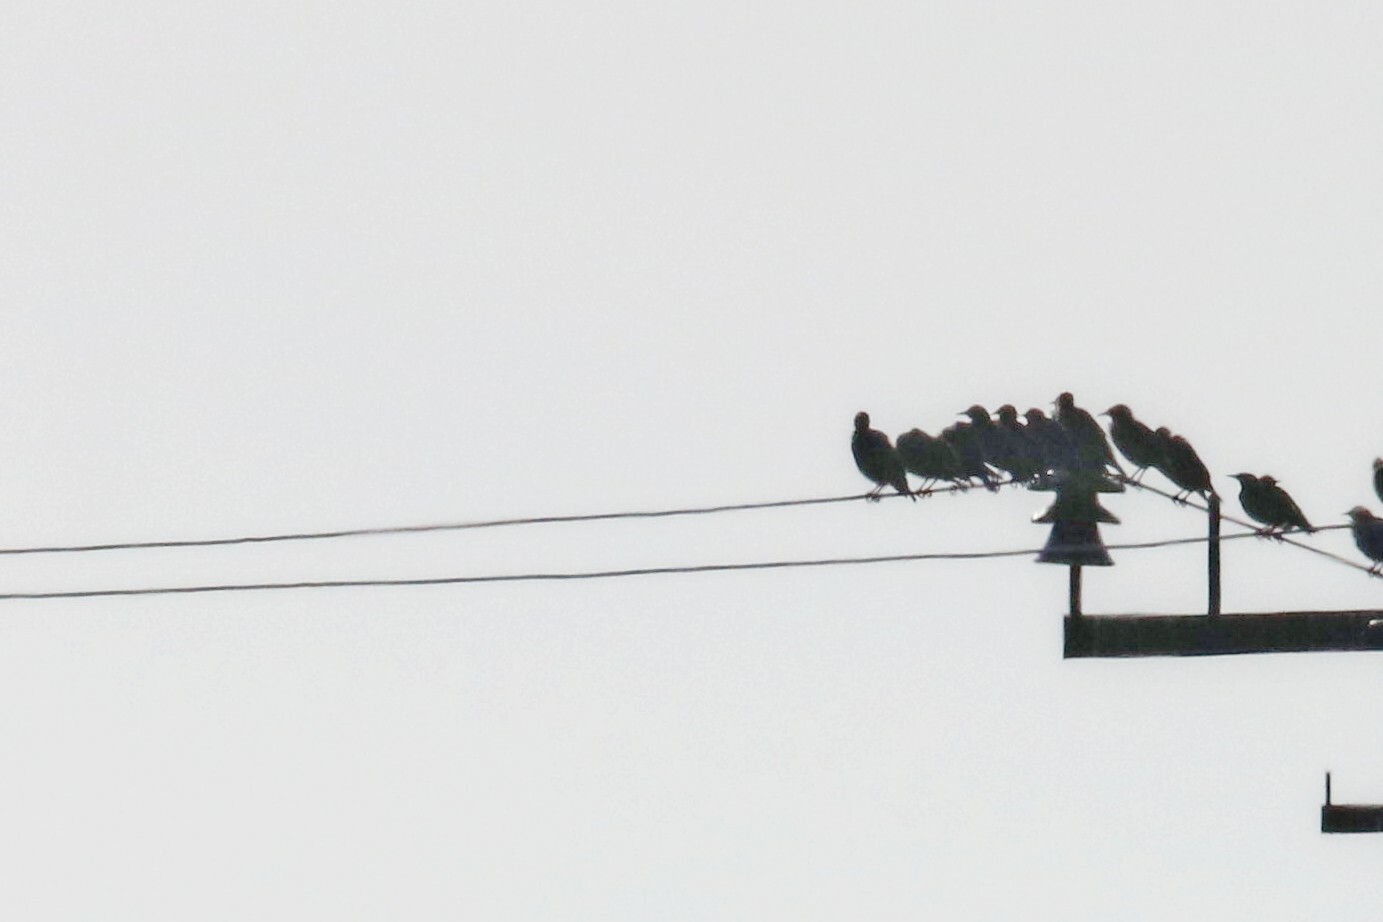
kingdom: Animalia
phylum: Chordata
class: Aves
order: Passeriformes
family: Sturnidae
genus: Sturnus
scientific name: Sturnus vulgaris
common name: Common starling
